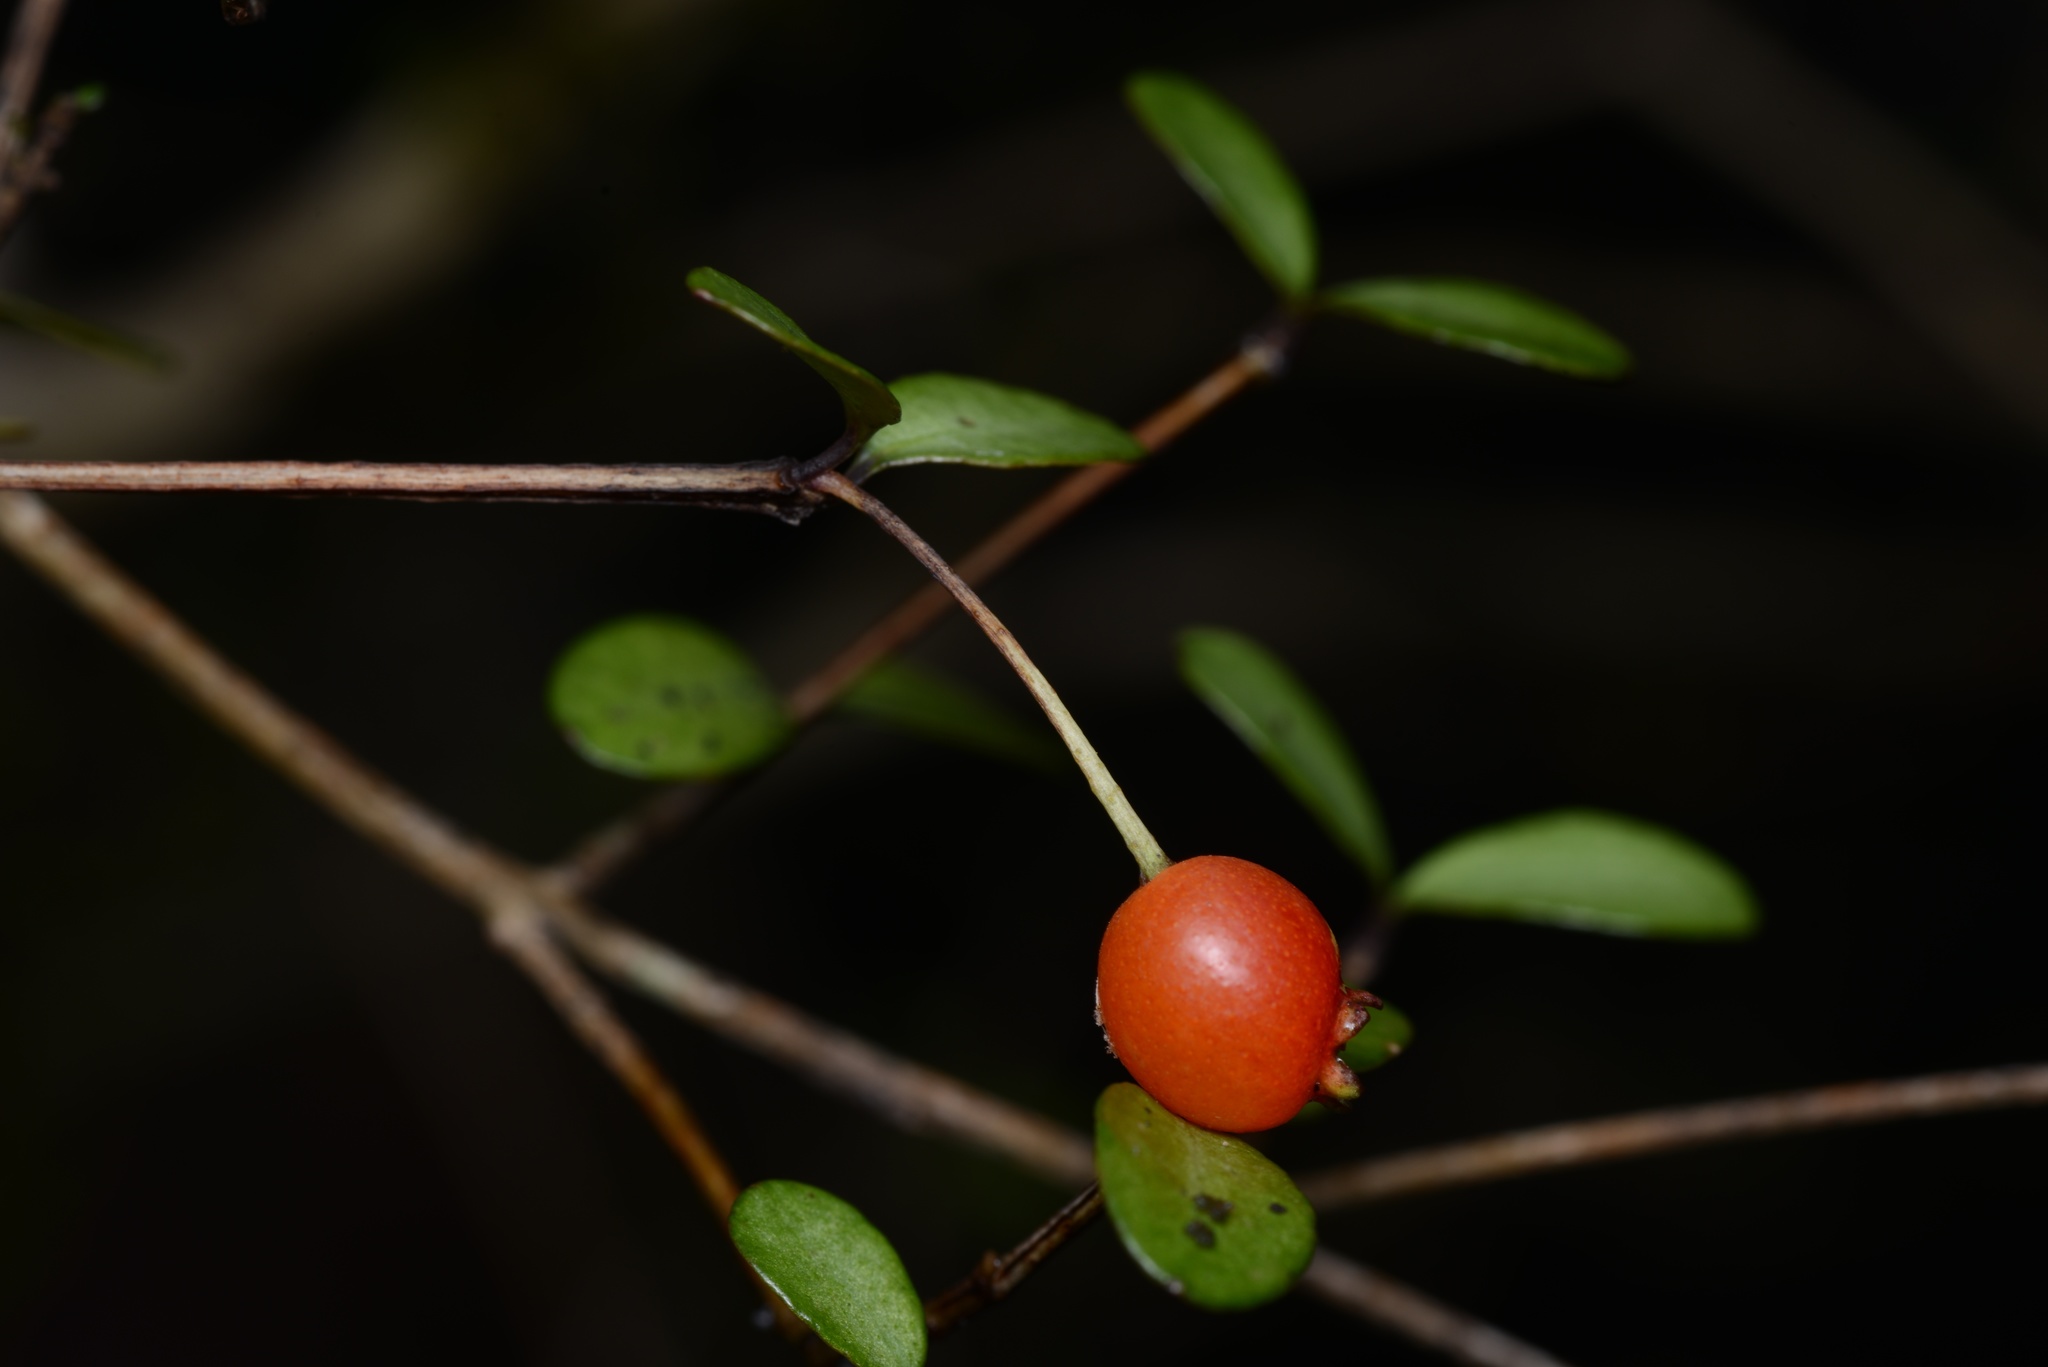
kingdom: Plantae
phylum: Tracheophyta
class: Magnoliopsida
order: Myrtales
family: Myrtaceae
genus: Neomyrtus
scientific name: Neomyrtus pedunculata
